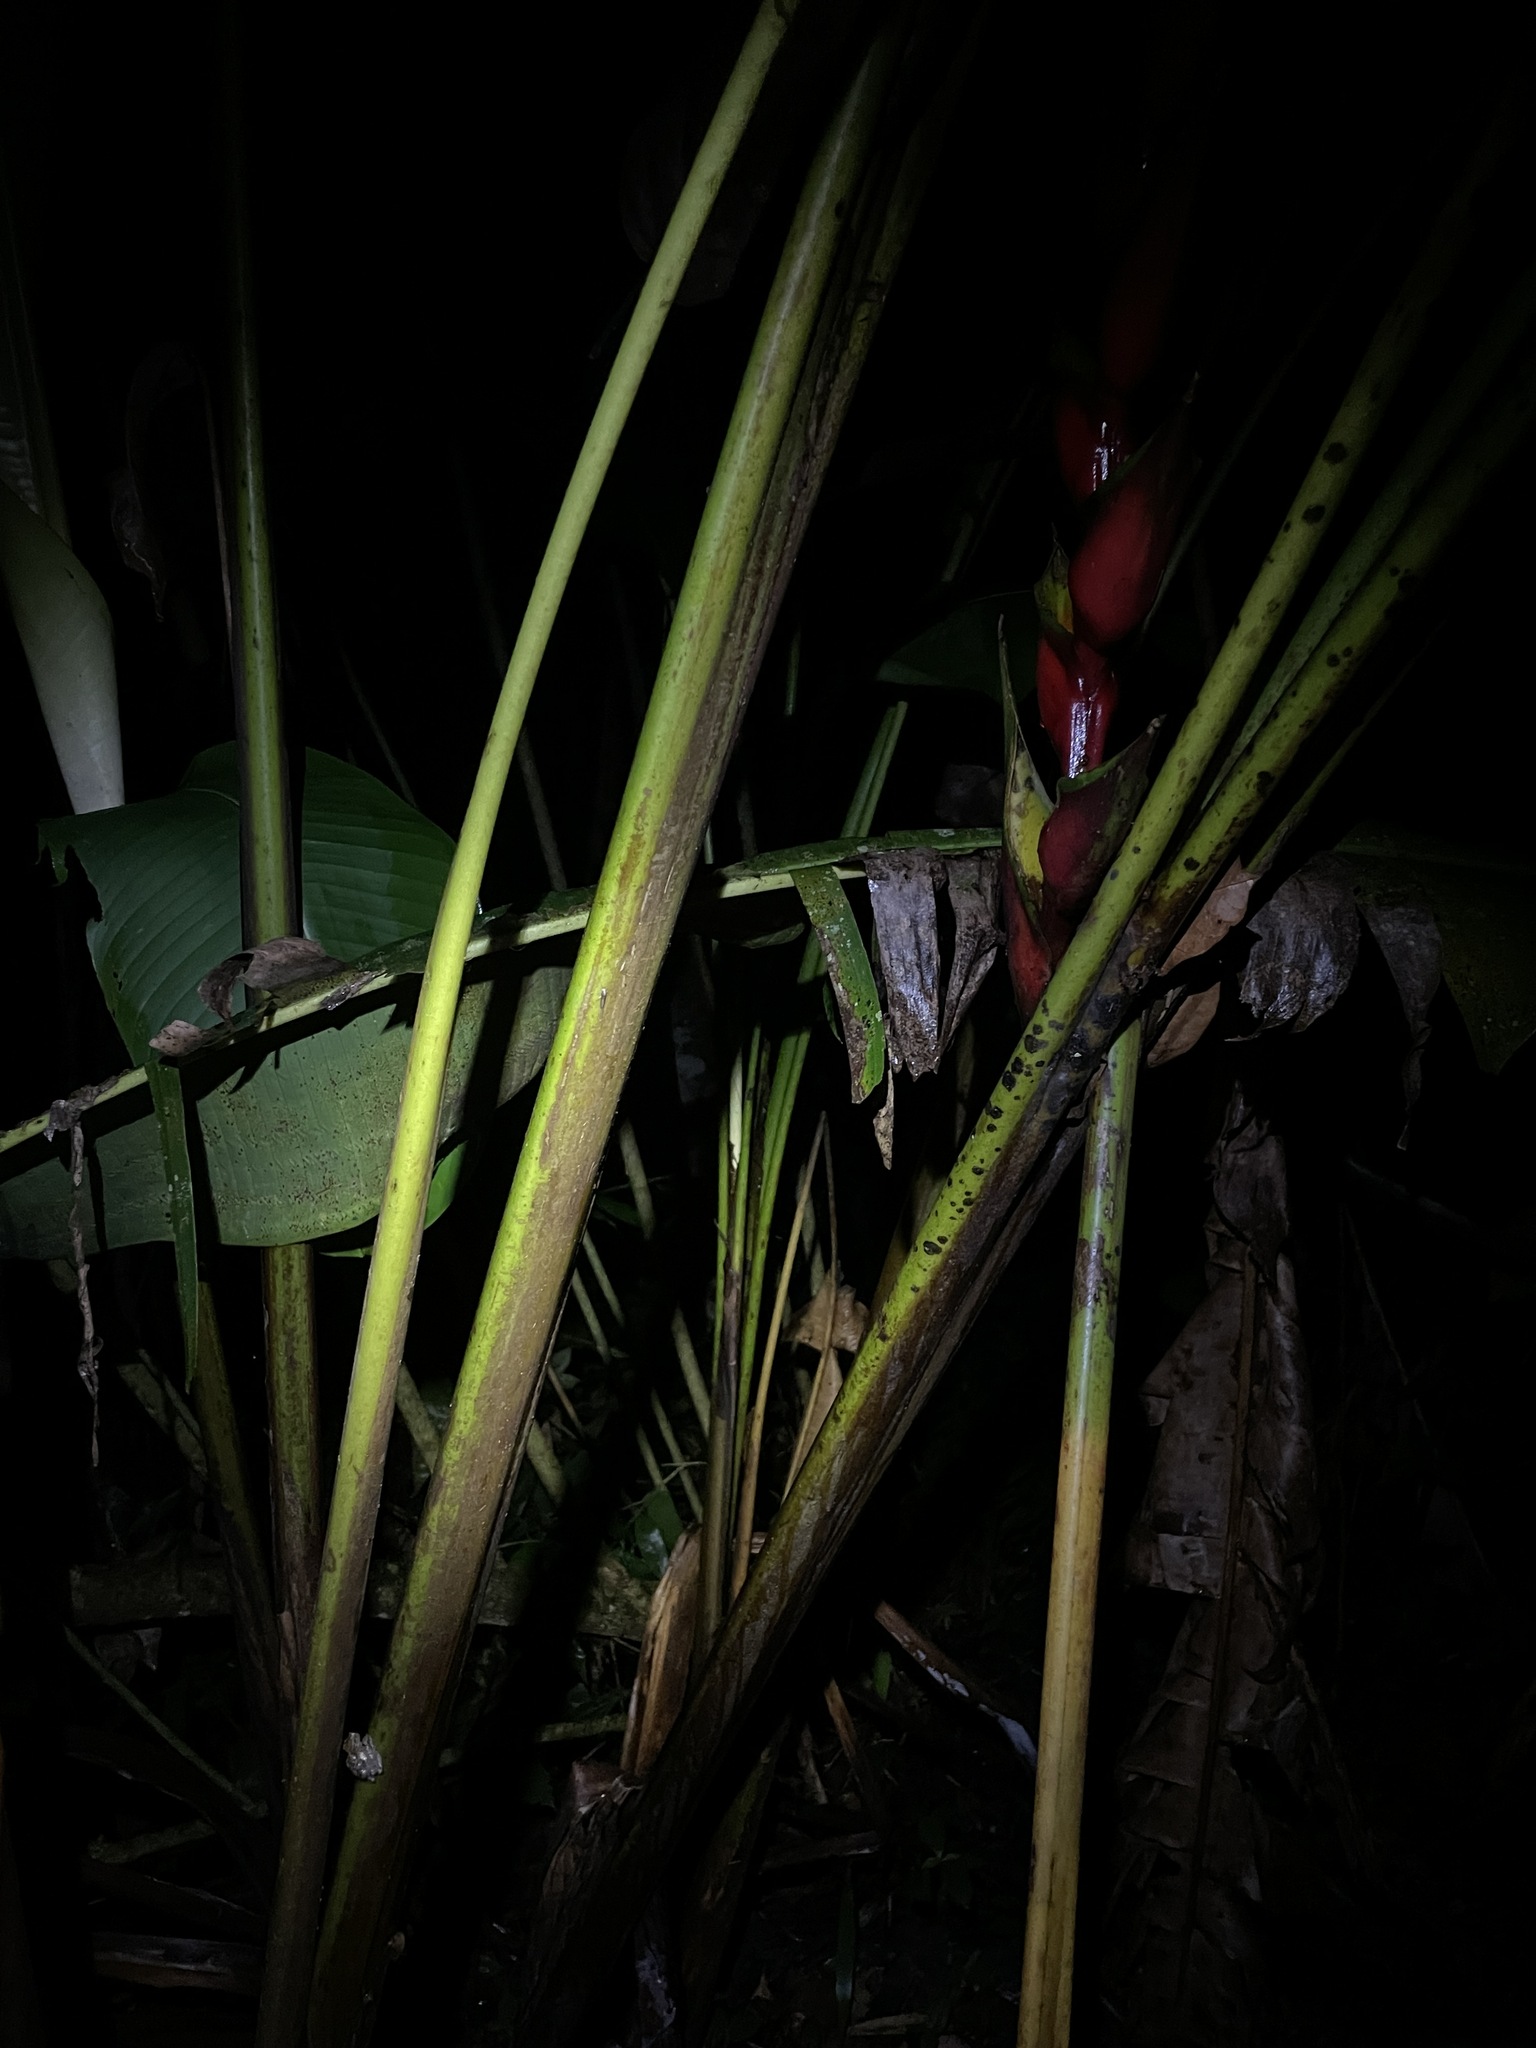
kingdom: Animalia
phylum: Chordata
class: Amphibia
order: Anura
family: Hemiphractidae
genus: Flectonotus
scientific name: Flectonotus fitzgeraldi
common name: Marsupial frog
